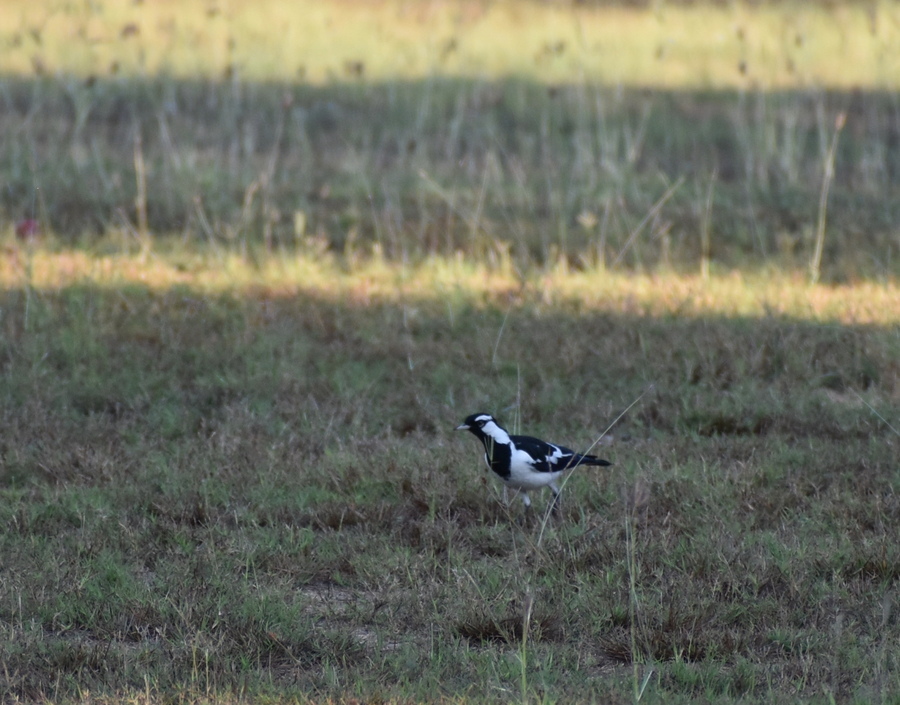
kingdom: Animalia
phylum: Chordata
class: Aves
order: Passeriformes
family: Monarchidae
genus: Grallina
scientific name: Grallina cyanoleuca
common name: Magpie-lark
